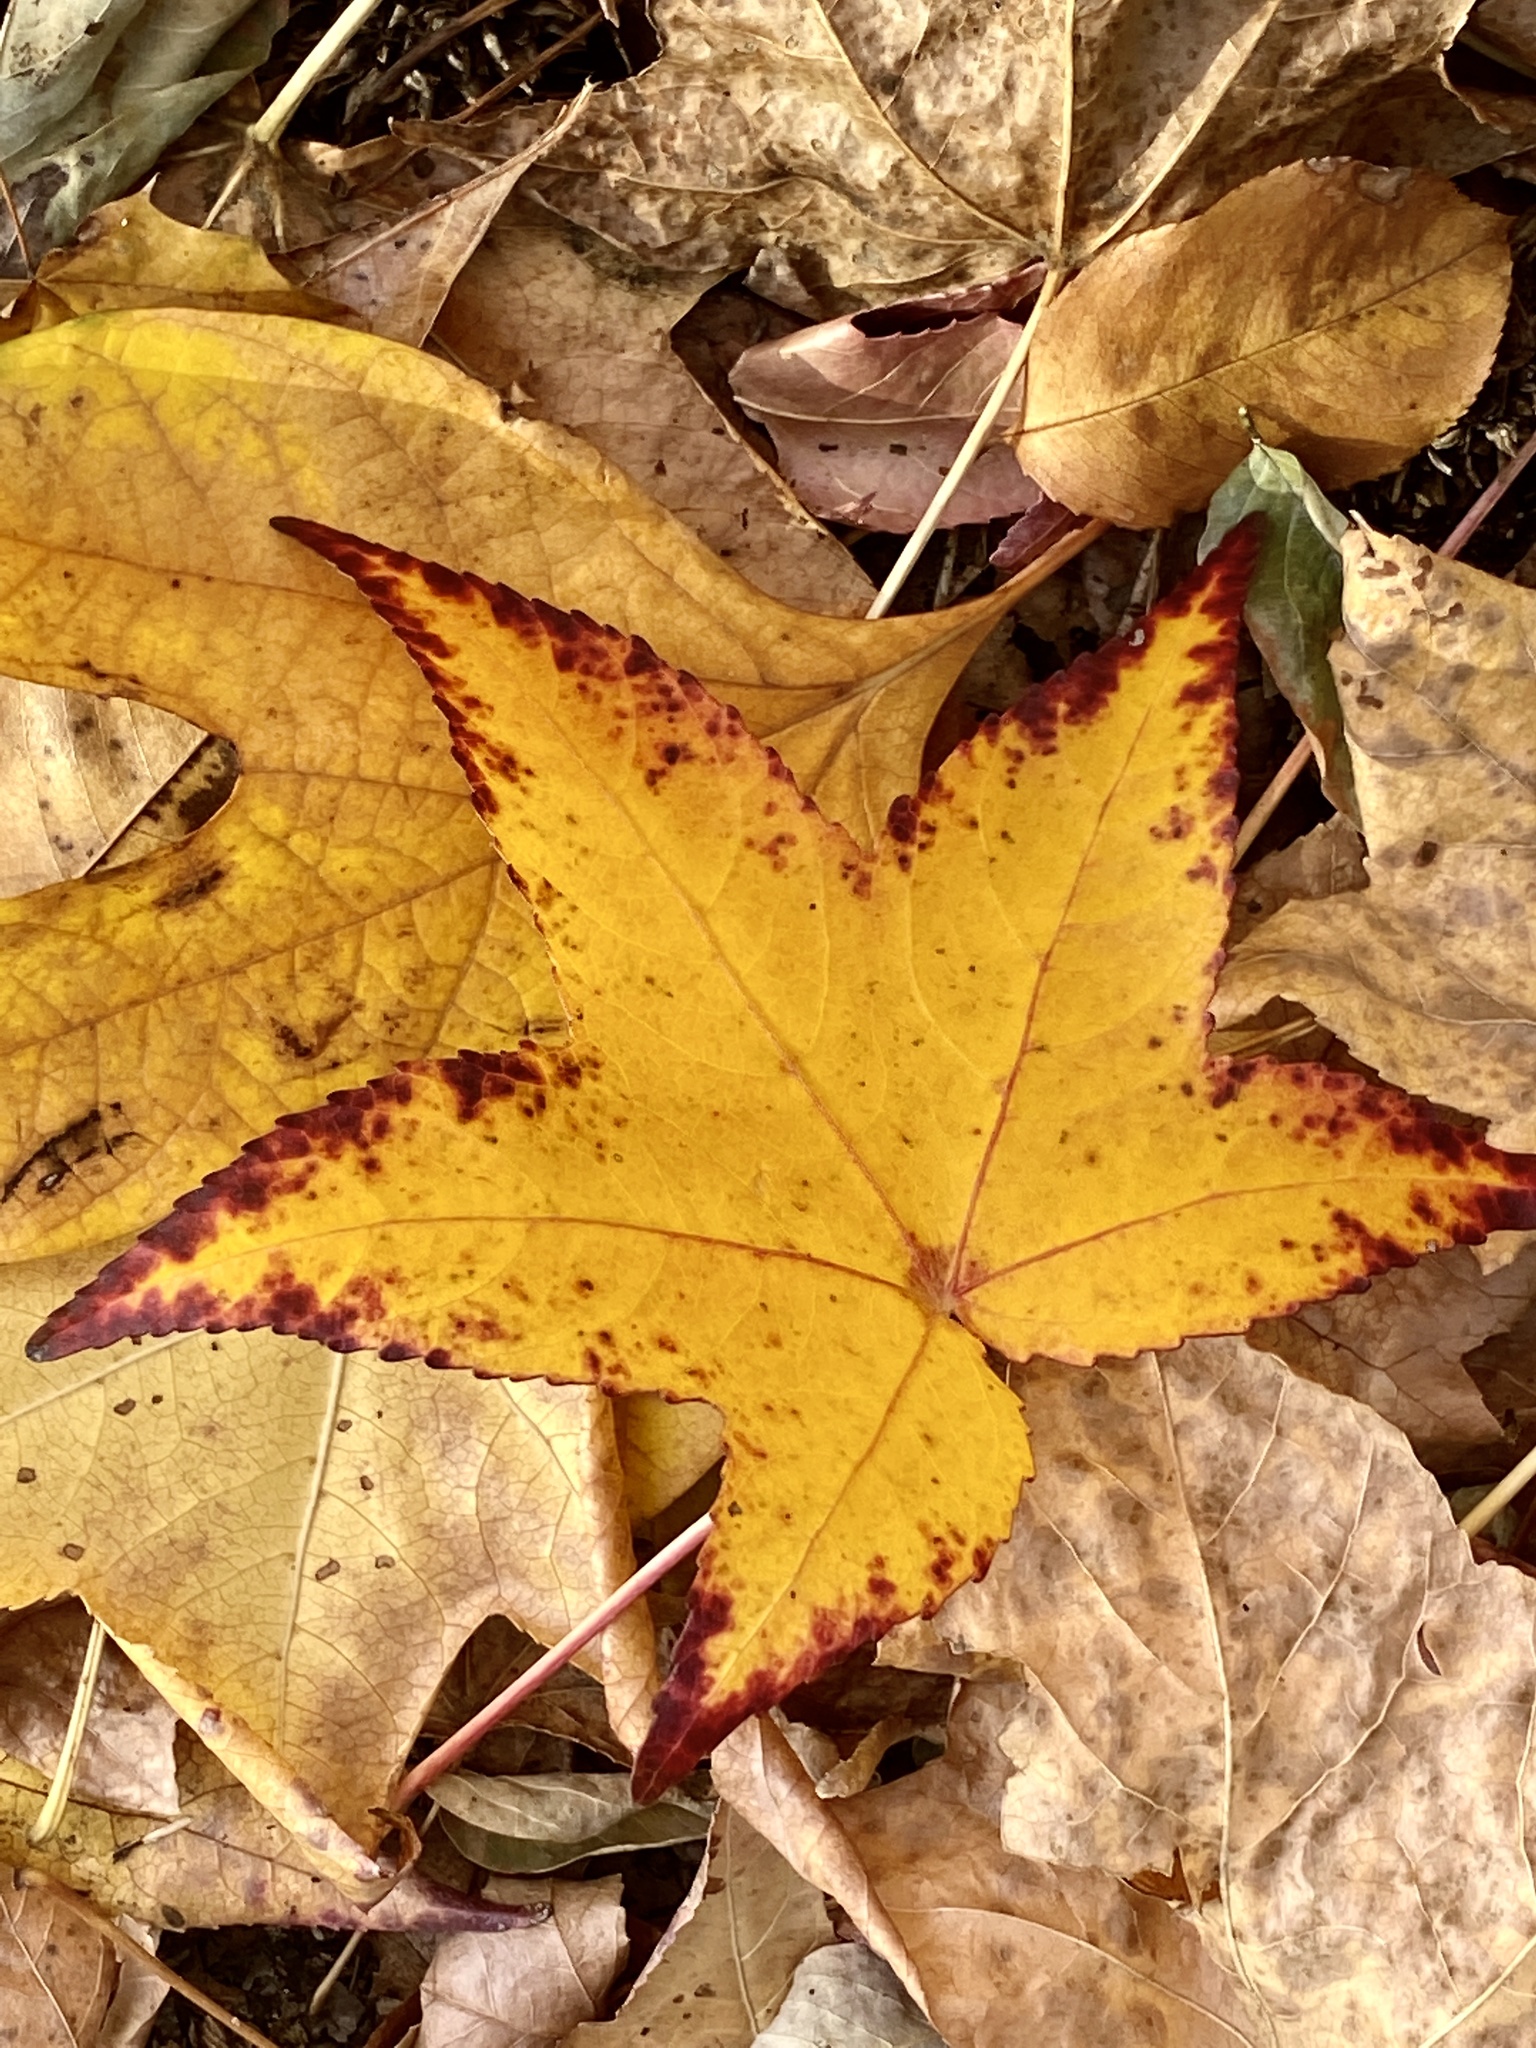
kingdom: Plantae
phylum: Tracheophyta
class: Magnoliopsida
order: Saxifragales
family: Altingiaceae
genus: Liquidambar
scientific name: Liquidambar styraciflua
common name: Sweet gum
